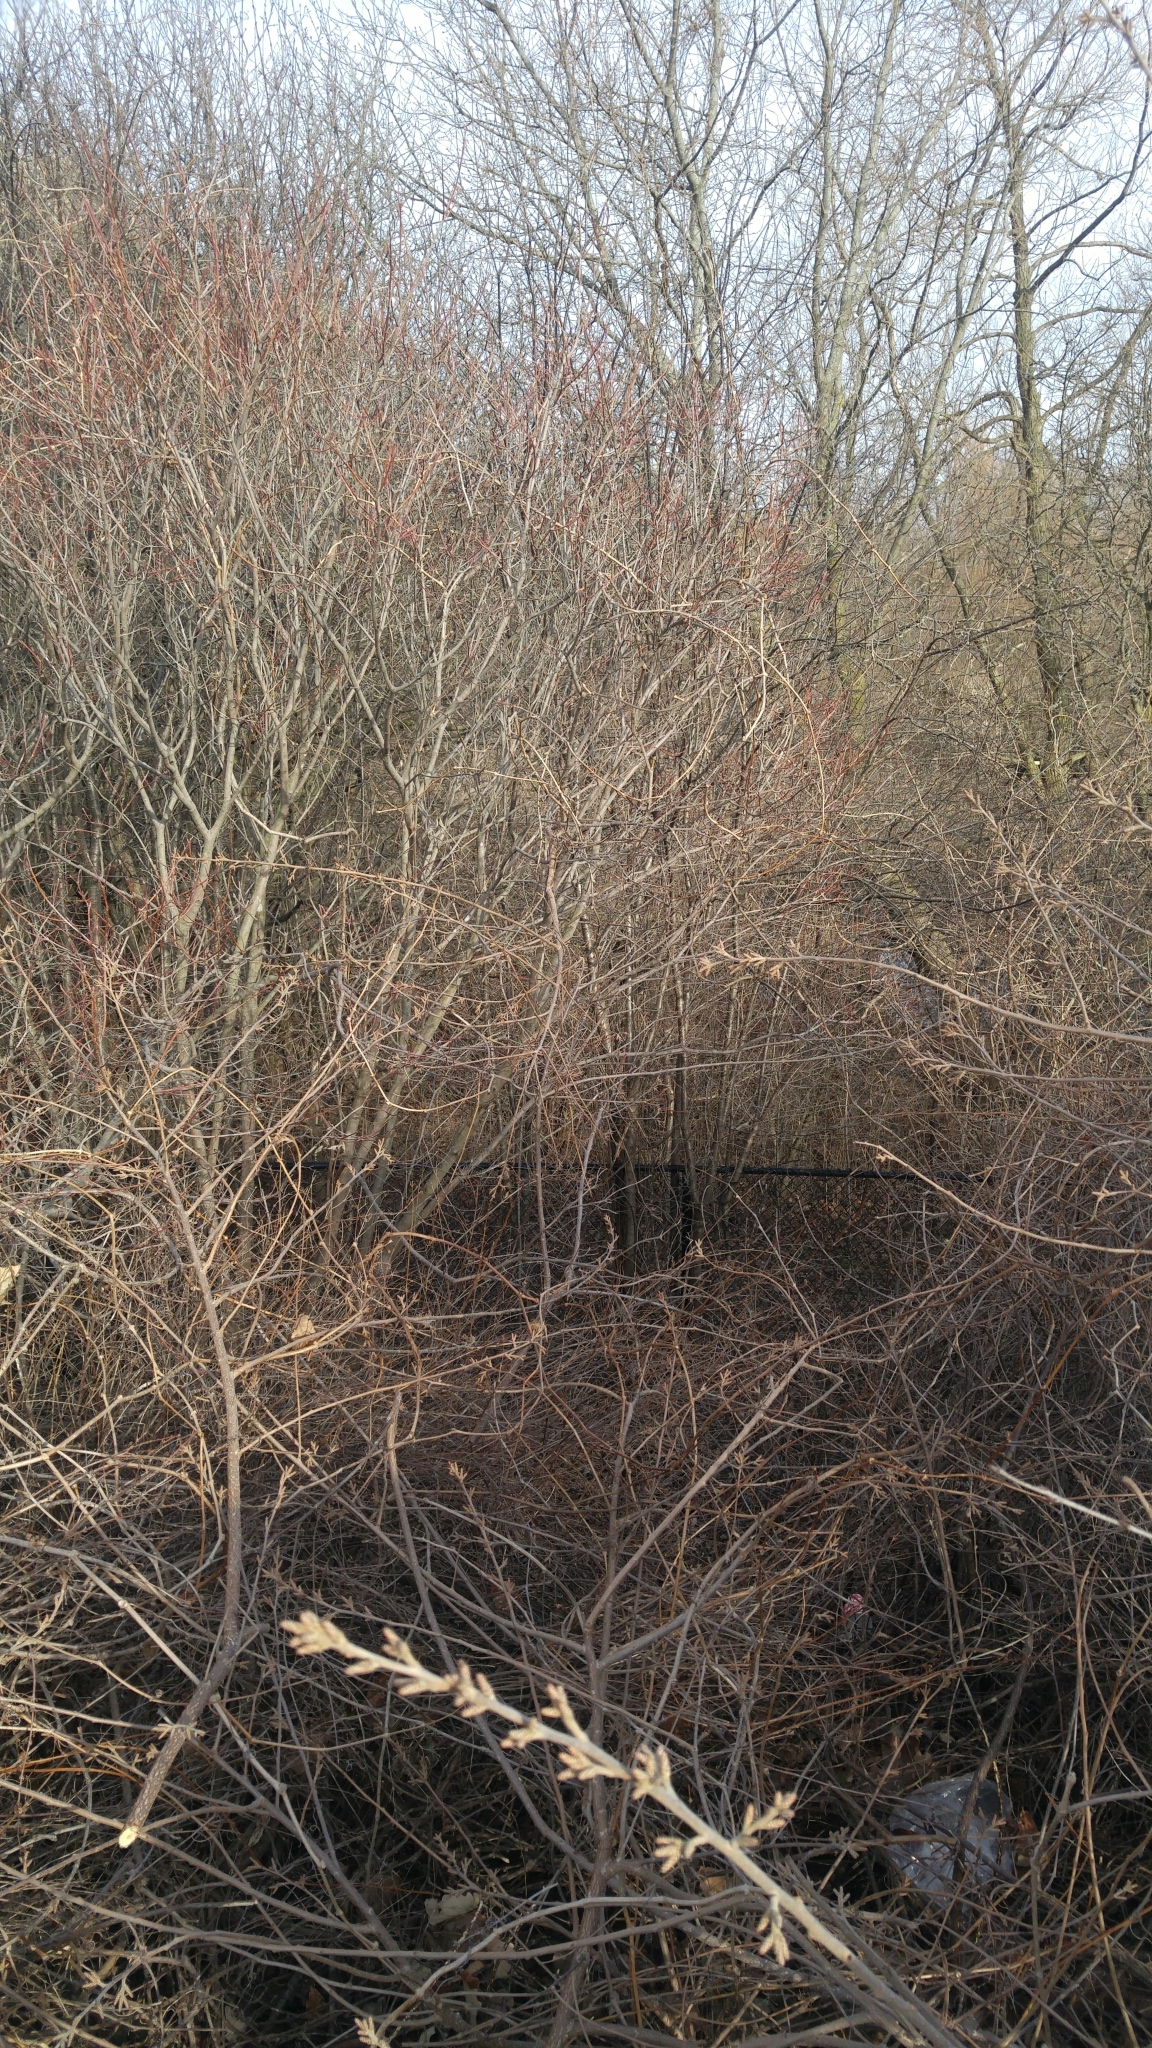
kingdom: Animalia
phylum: Chordata
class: Amphibia
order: Anura
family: Hylidae
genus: Pseudacris
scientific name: Pseudacris triseriata
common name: Western chorus frog
